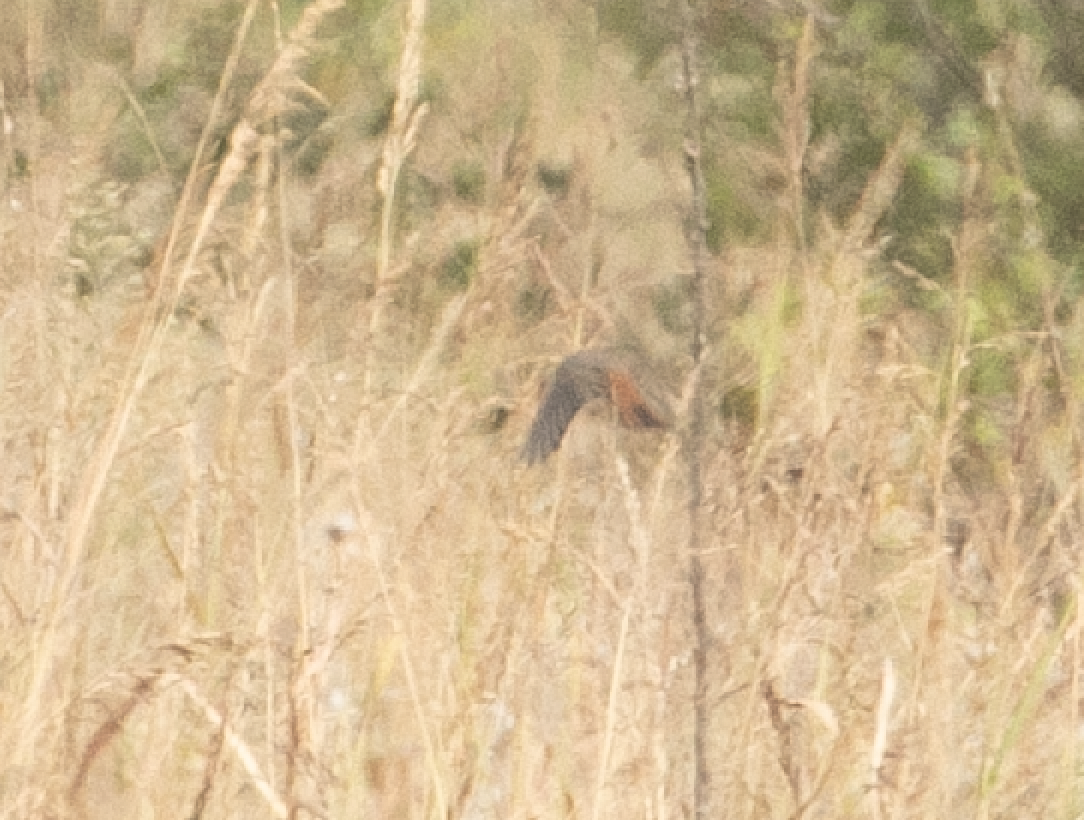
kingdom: Animalia
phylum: Chordata
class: Aves
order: Passeriformes
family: Muscicapidae
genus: Phoenicurus
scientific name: Phoenicurus ochruros
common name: Black redstart
